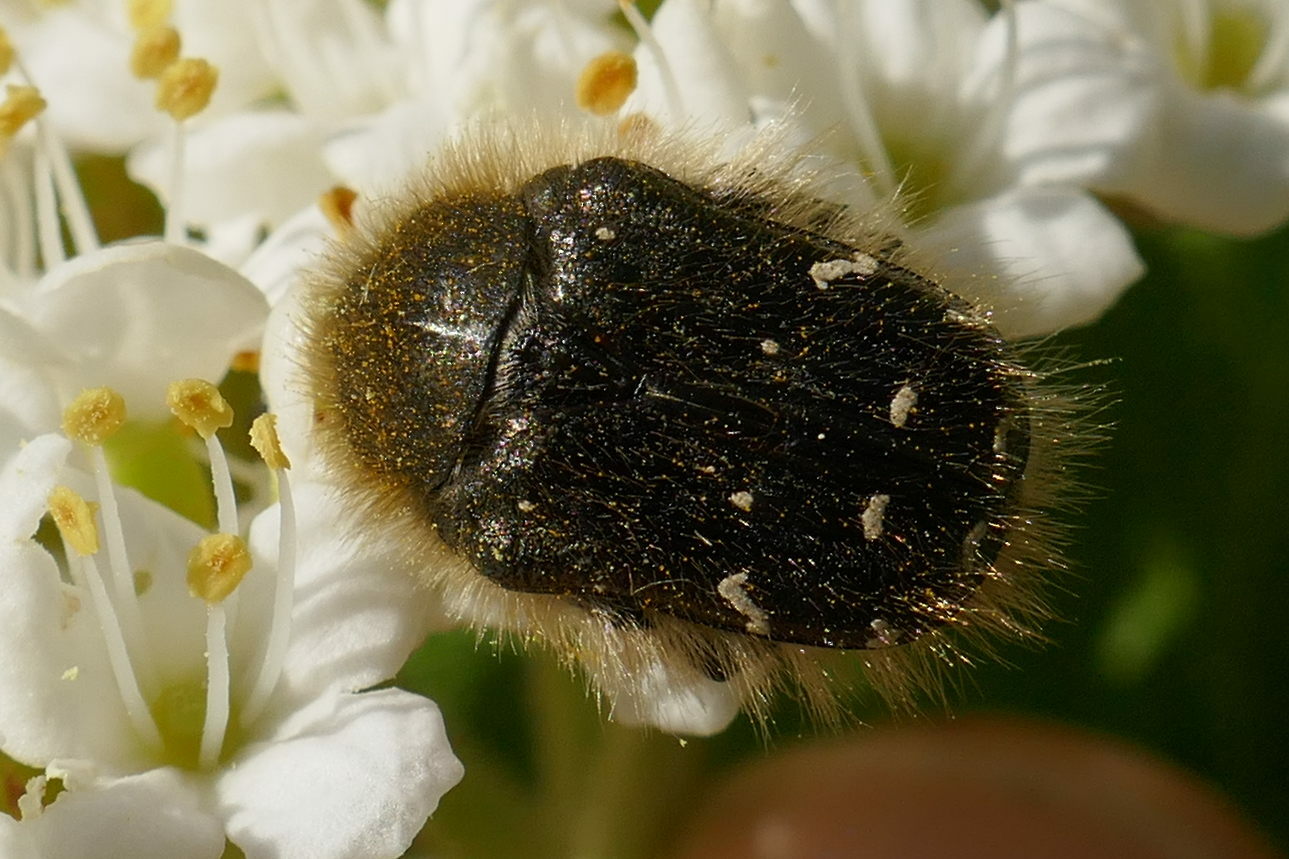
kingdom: Animalia
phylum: Arthropoda
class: Insecta
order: Coleoptera
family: Scarabaeidae
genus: Tropinota
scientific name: Tropinota hirta
